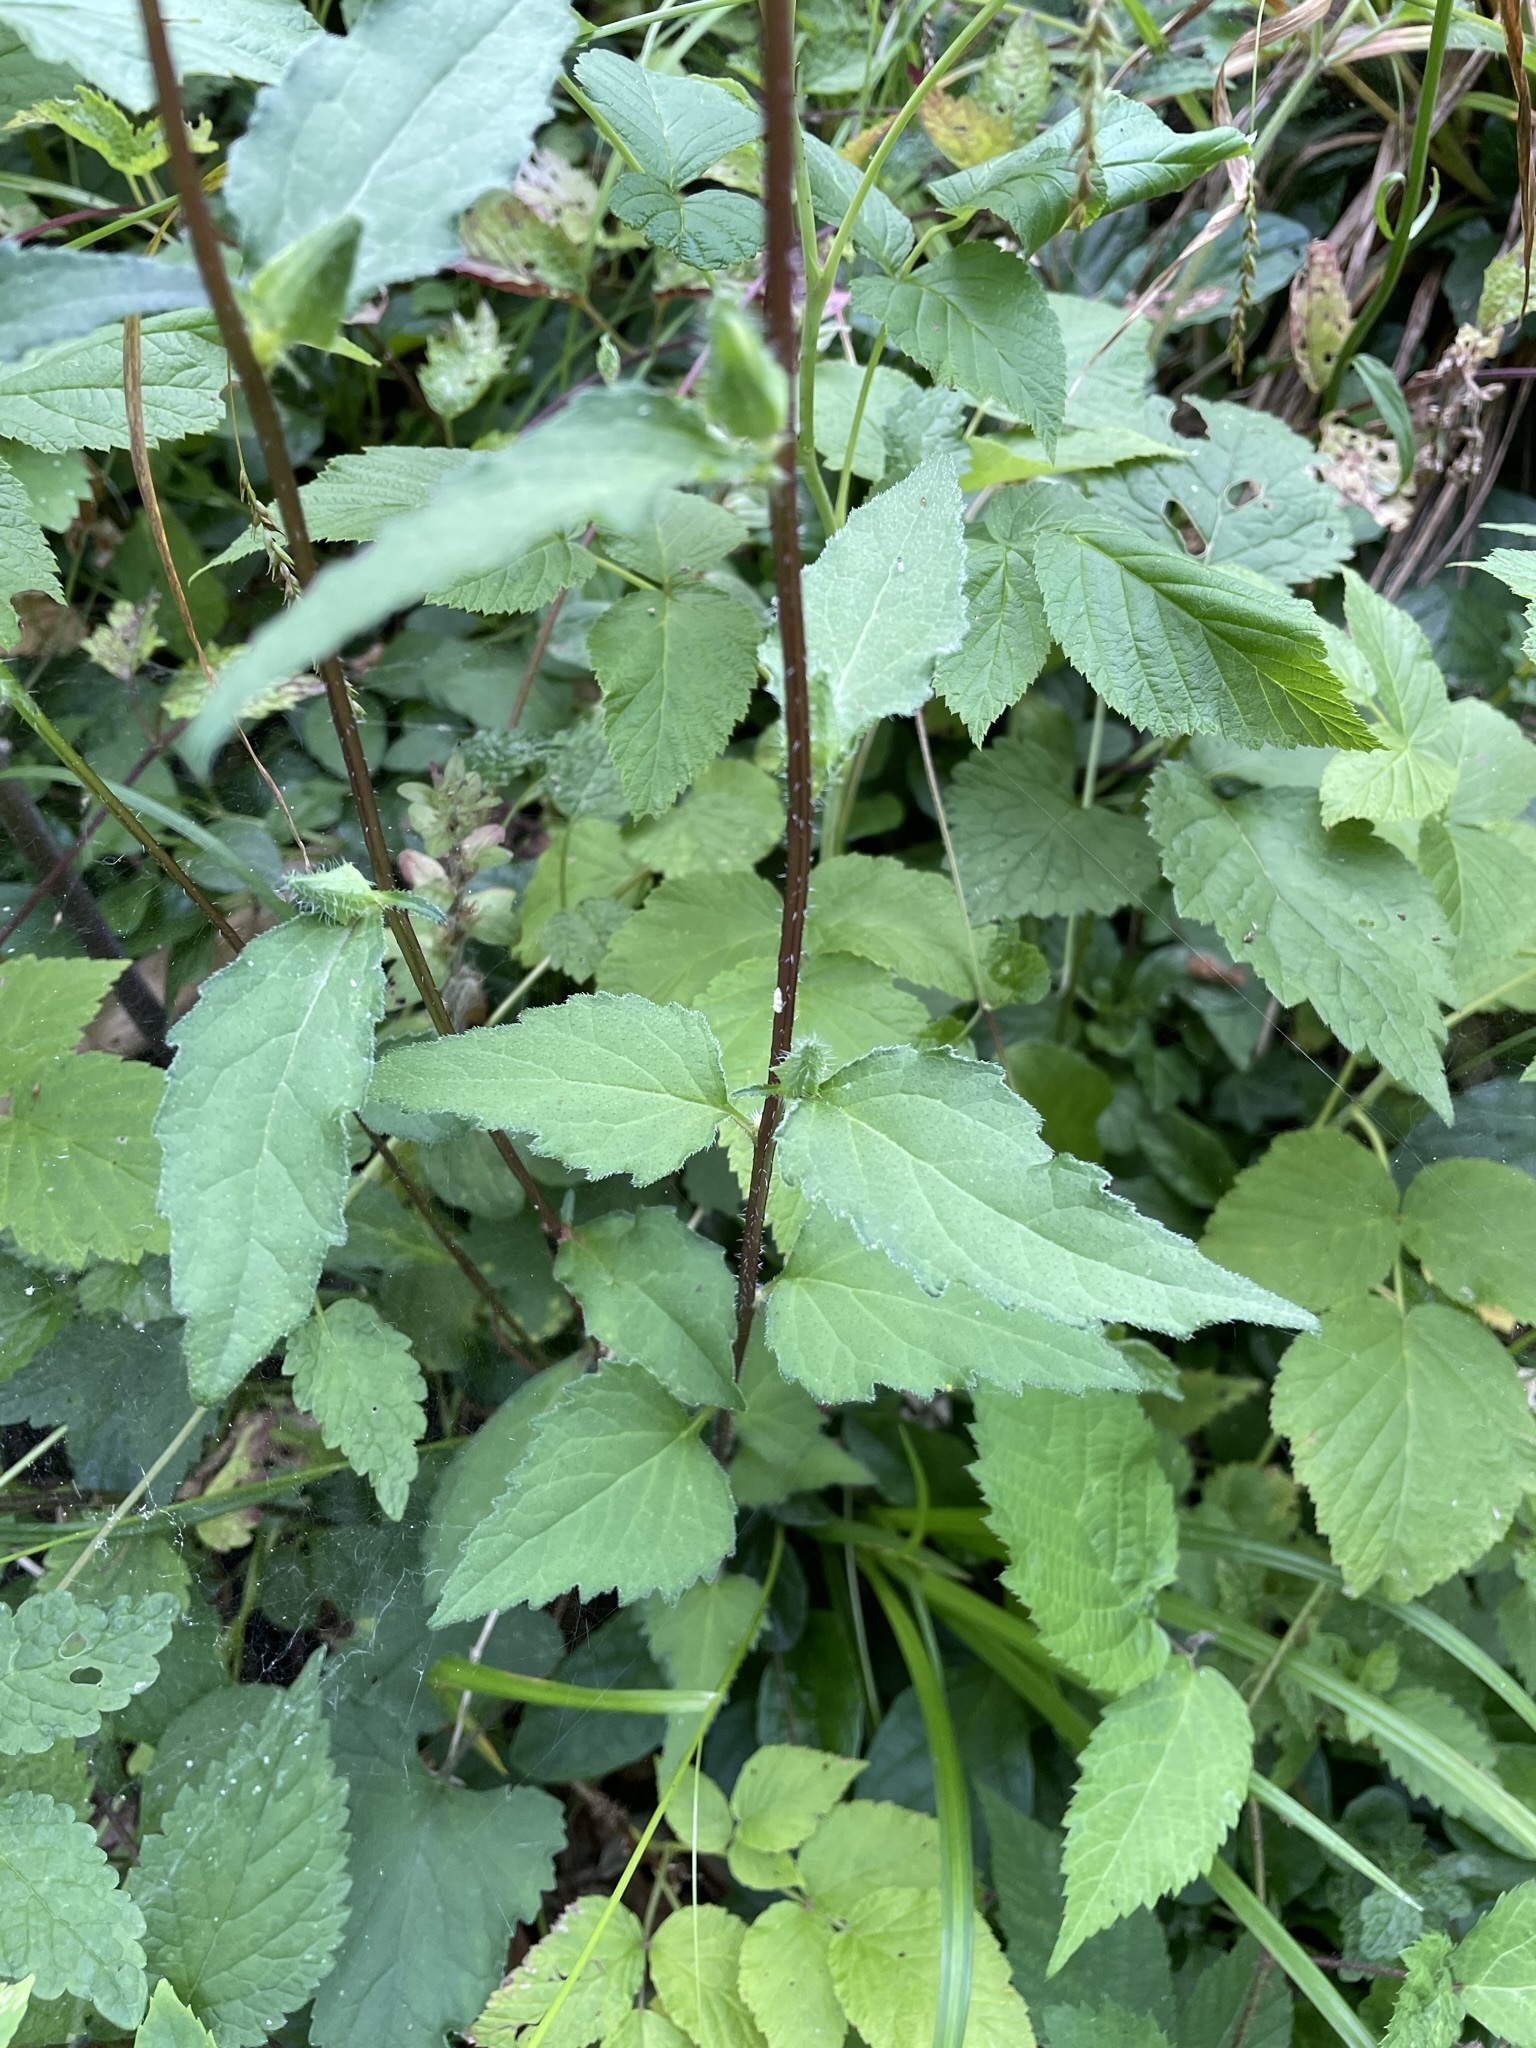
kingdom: Plantae
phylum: Tracheophyta
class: Magnoliopsida
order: Asterales
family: Campanulaceae
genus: Campanula
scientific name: Campanula trachelium
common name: Nettle-leaved bellflower
